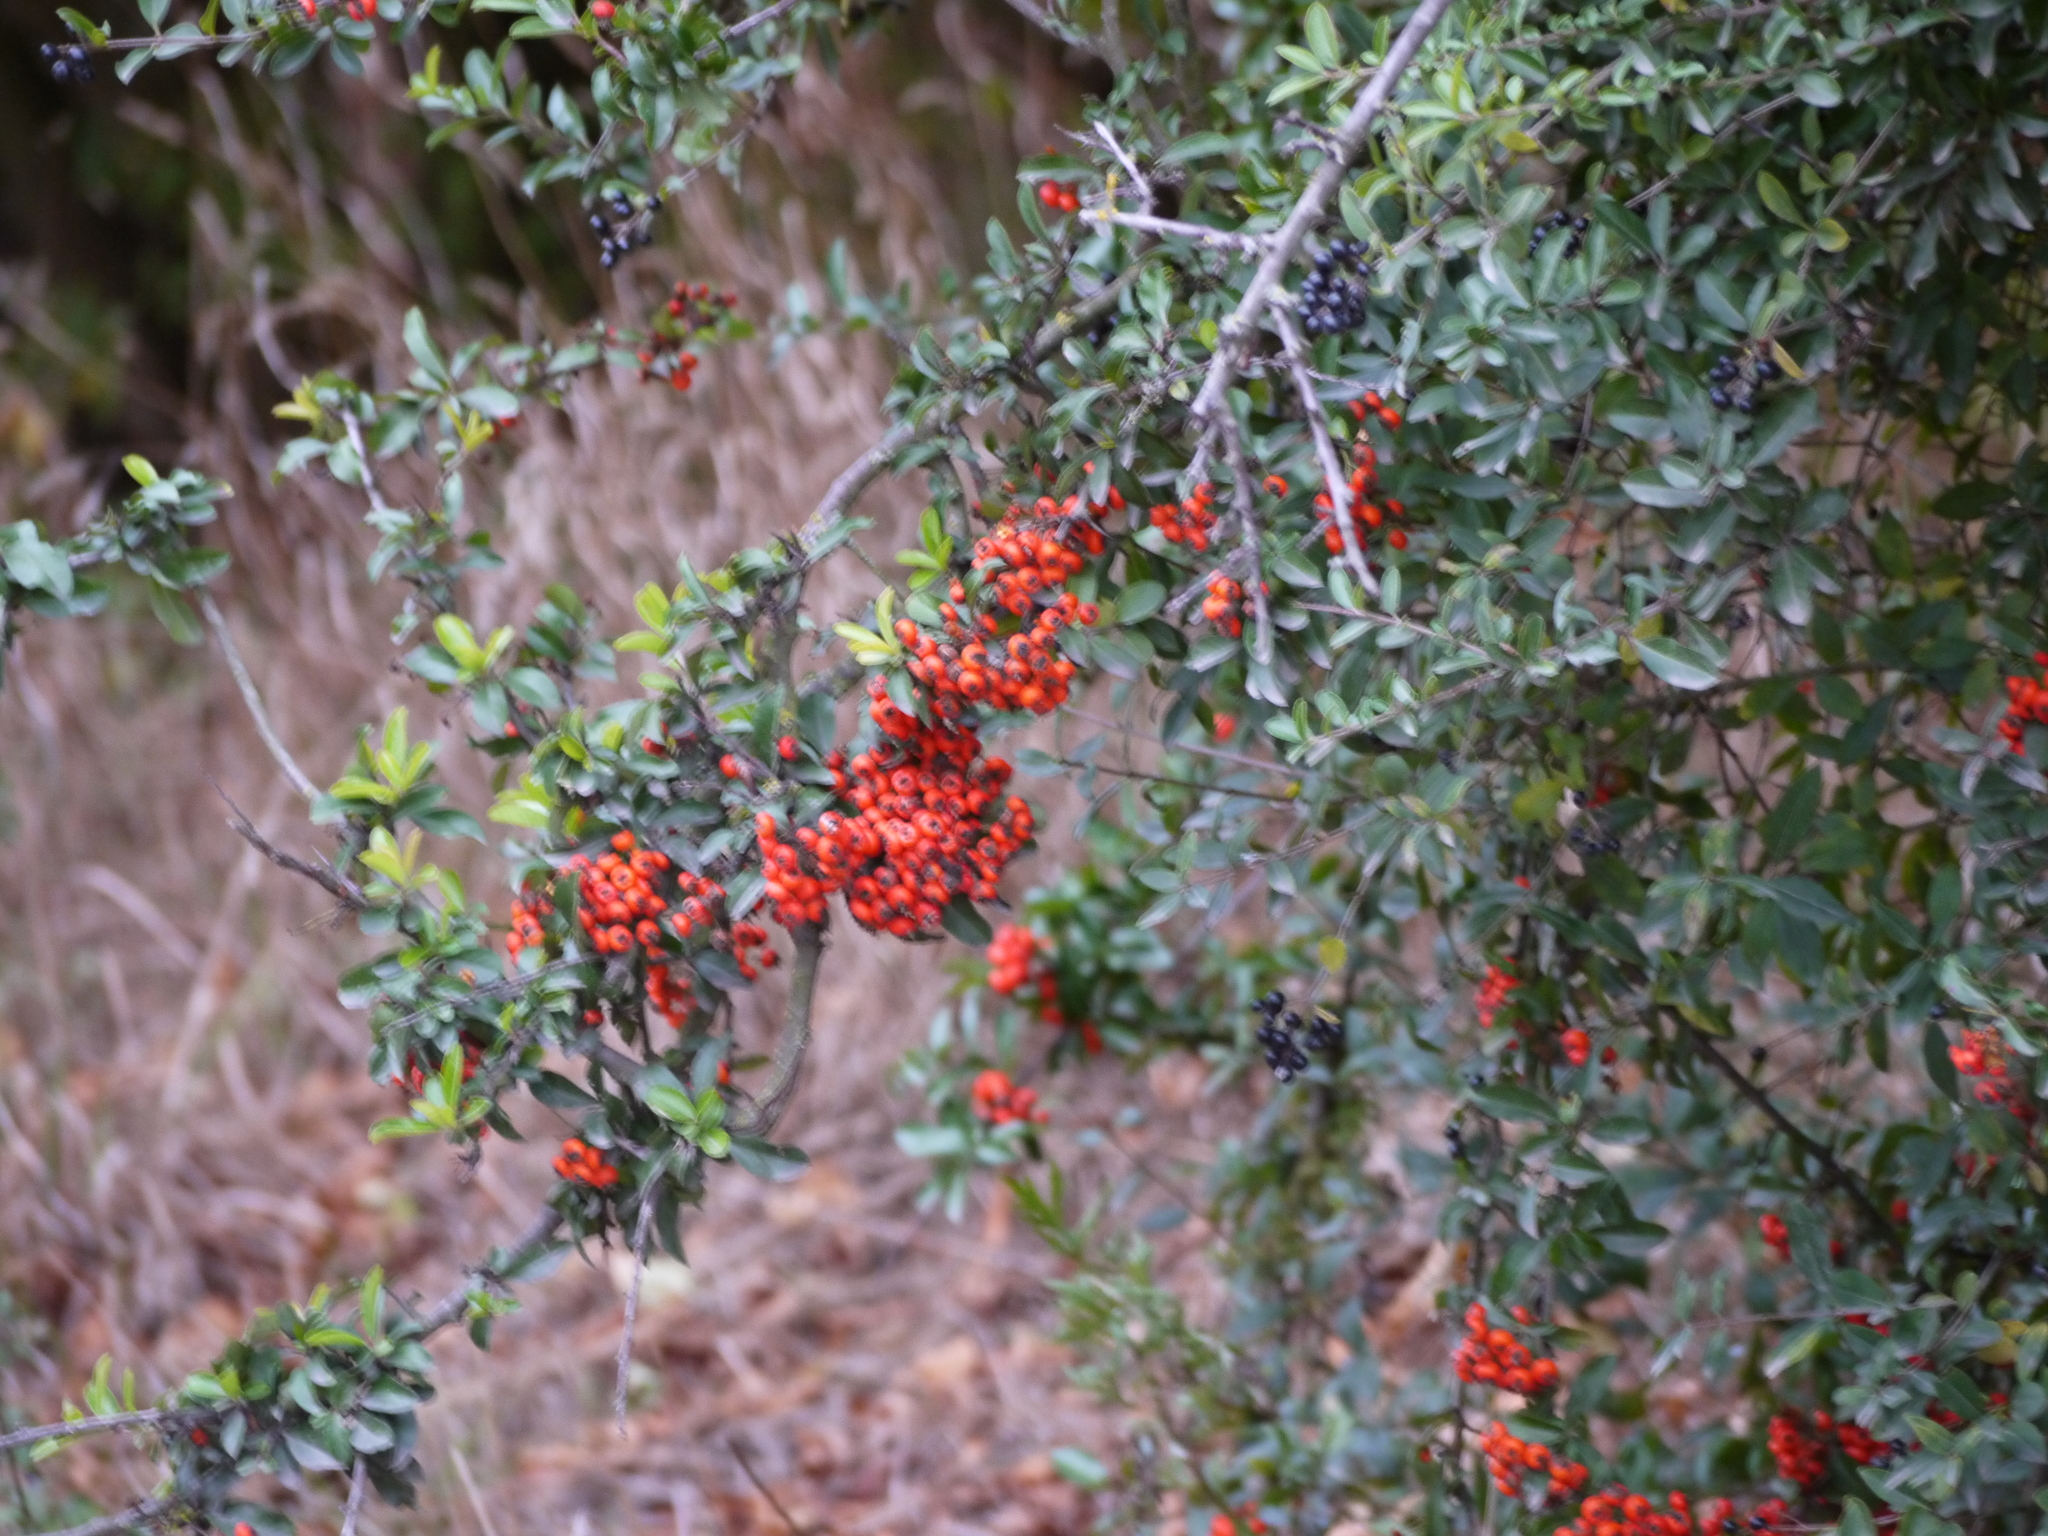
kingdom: Plantae
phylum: Tracheophyta
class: Magnoliopsida
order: Rosales
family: Rosaceae
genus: Pyracantha
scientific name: Pyracantha coccinea
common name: Firethorn
